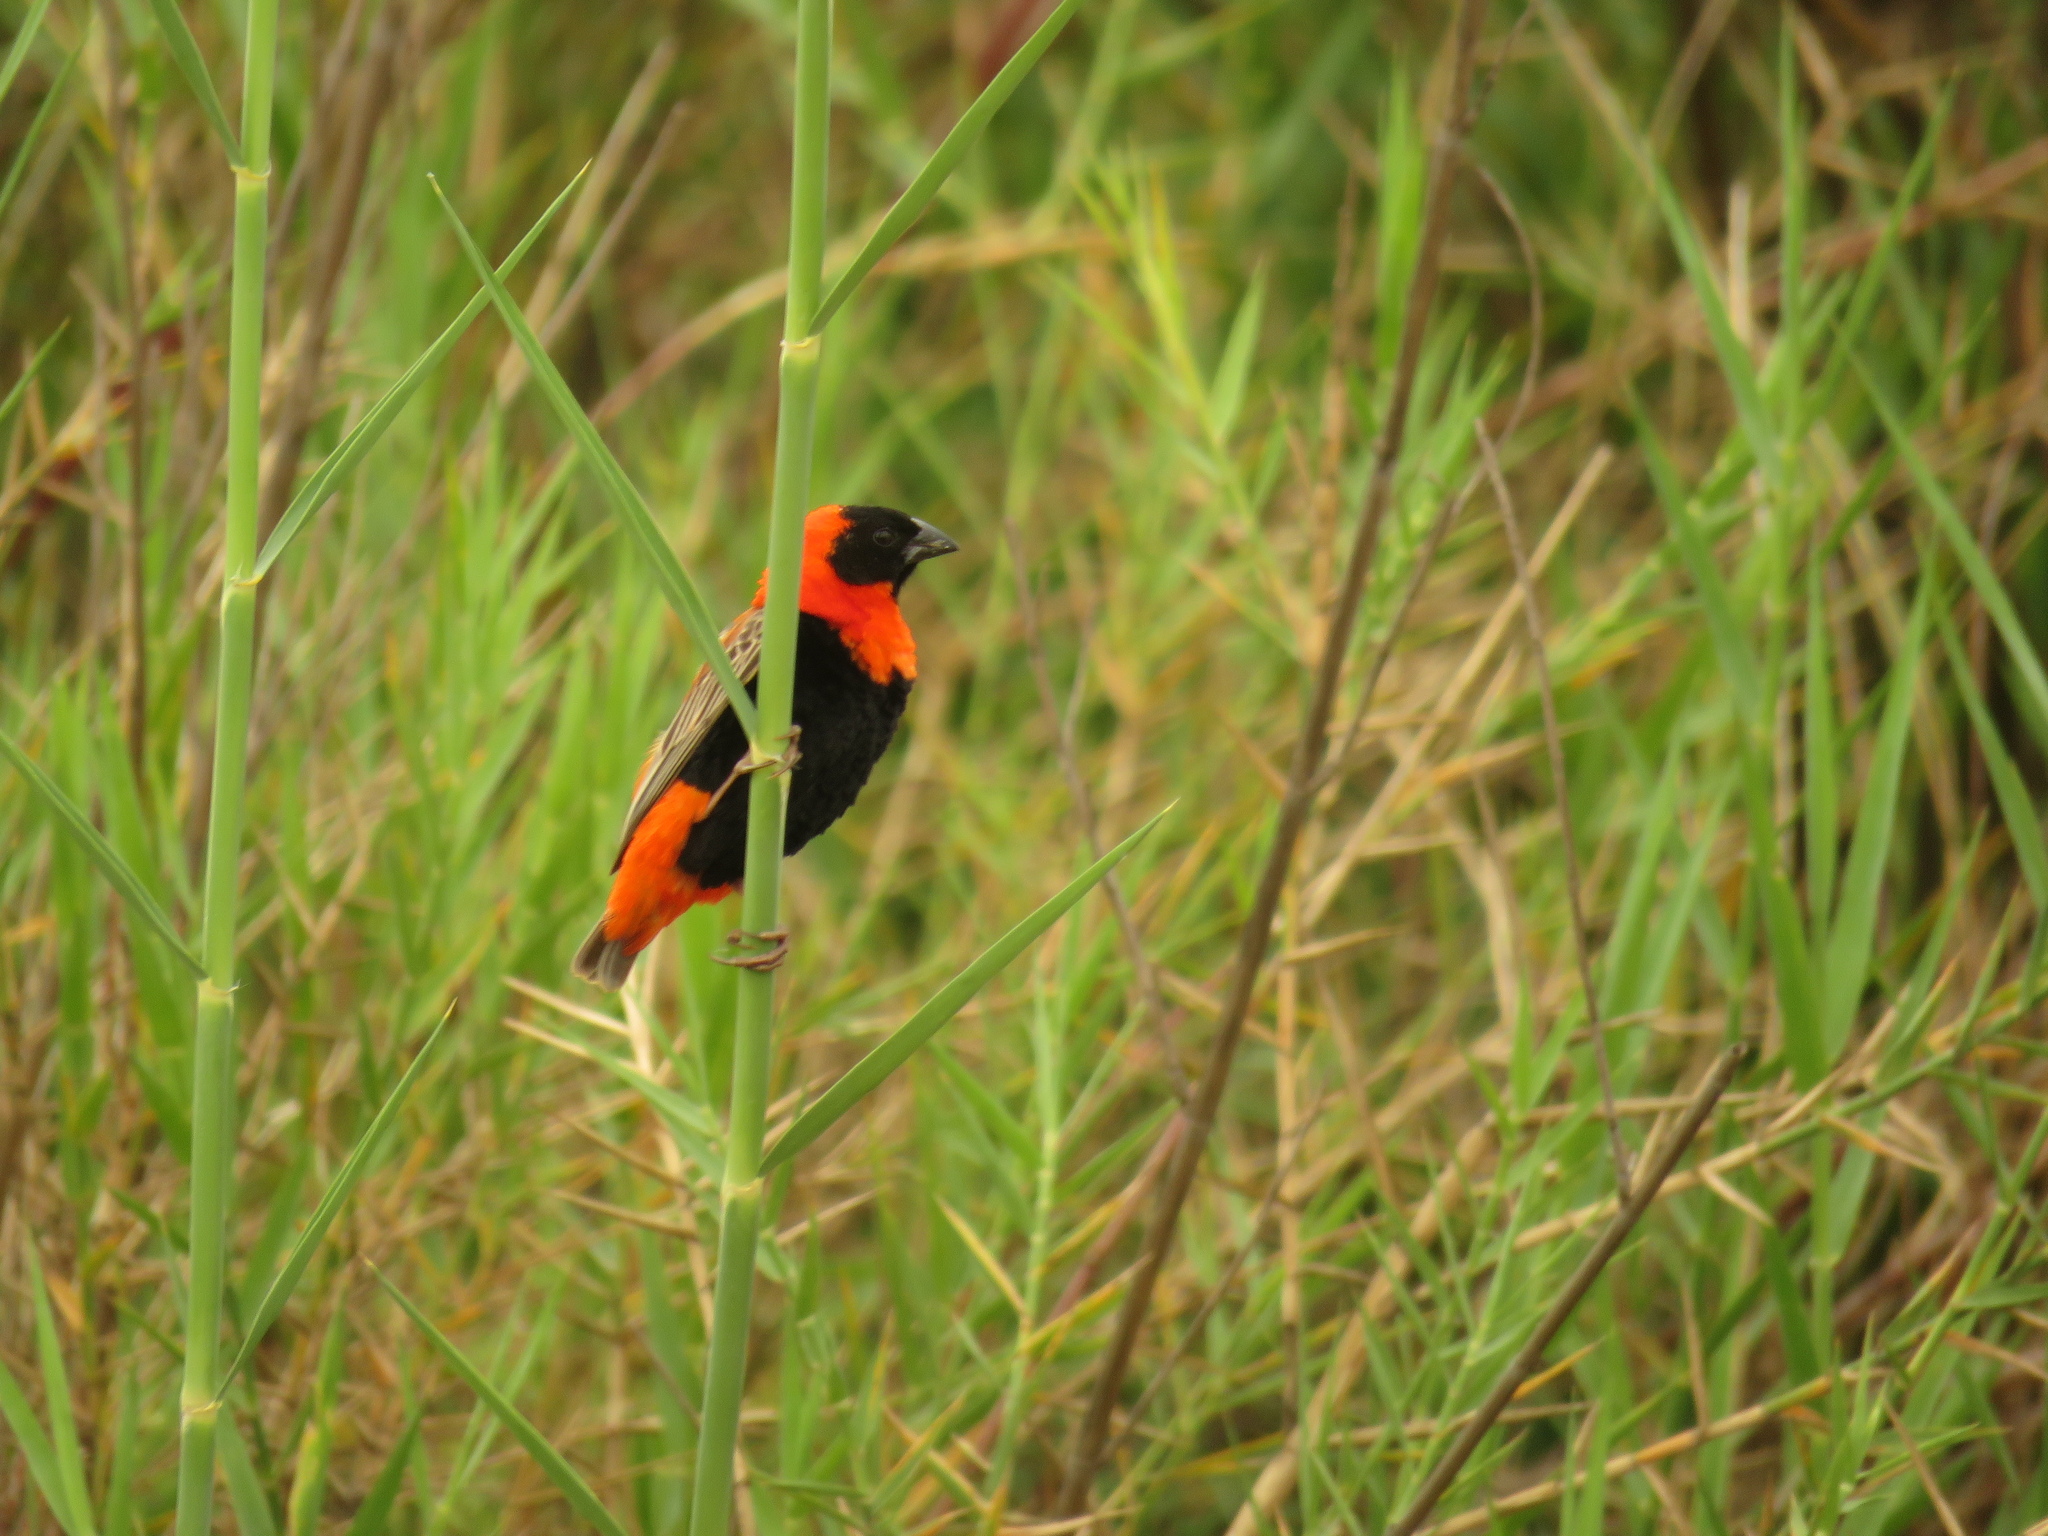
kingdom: Animalia
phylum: Chordata
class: Aves
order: Passeriformes
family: Ploceidae
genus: Euplectes
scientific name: Euplectes orix
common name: Southern red bishop
